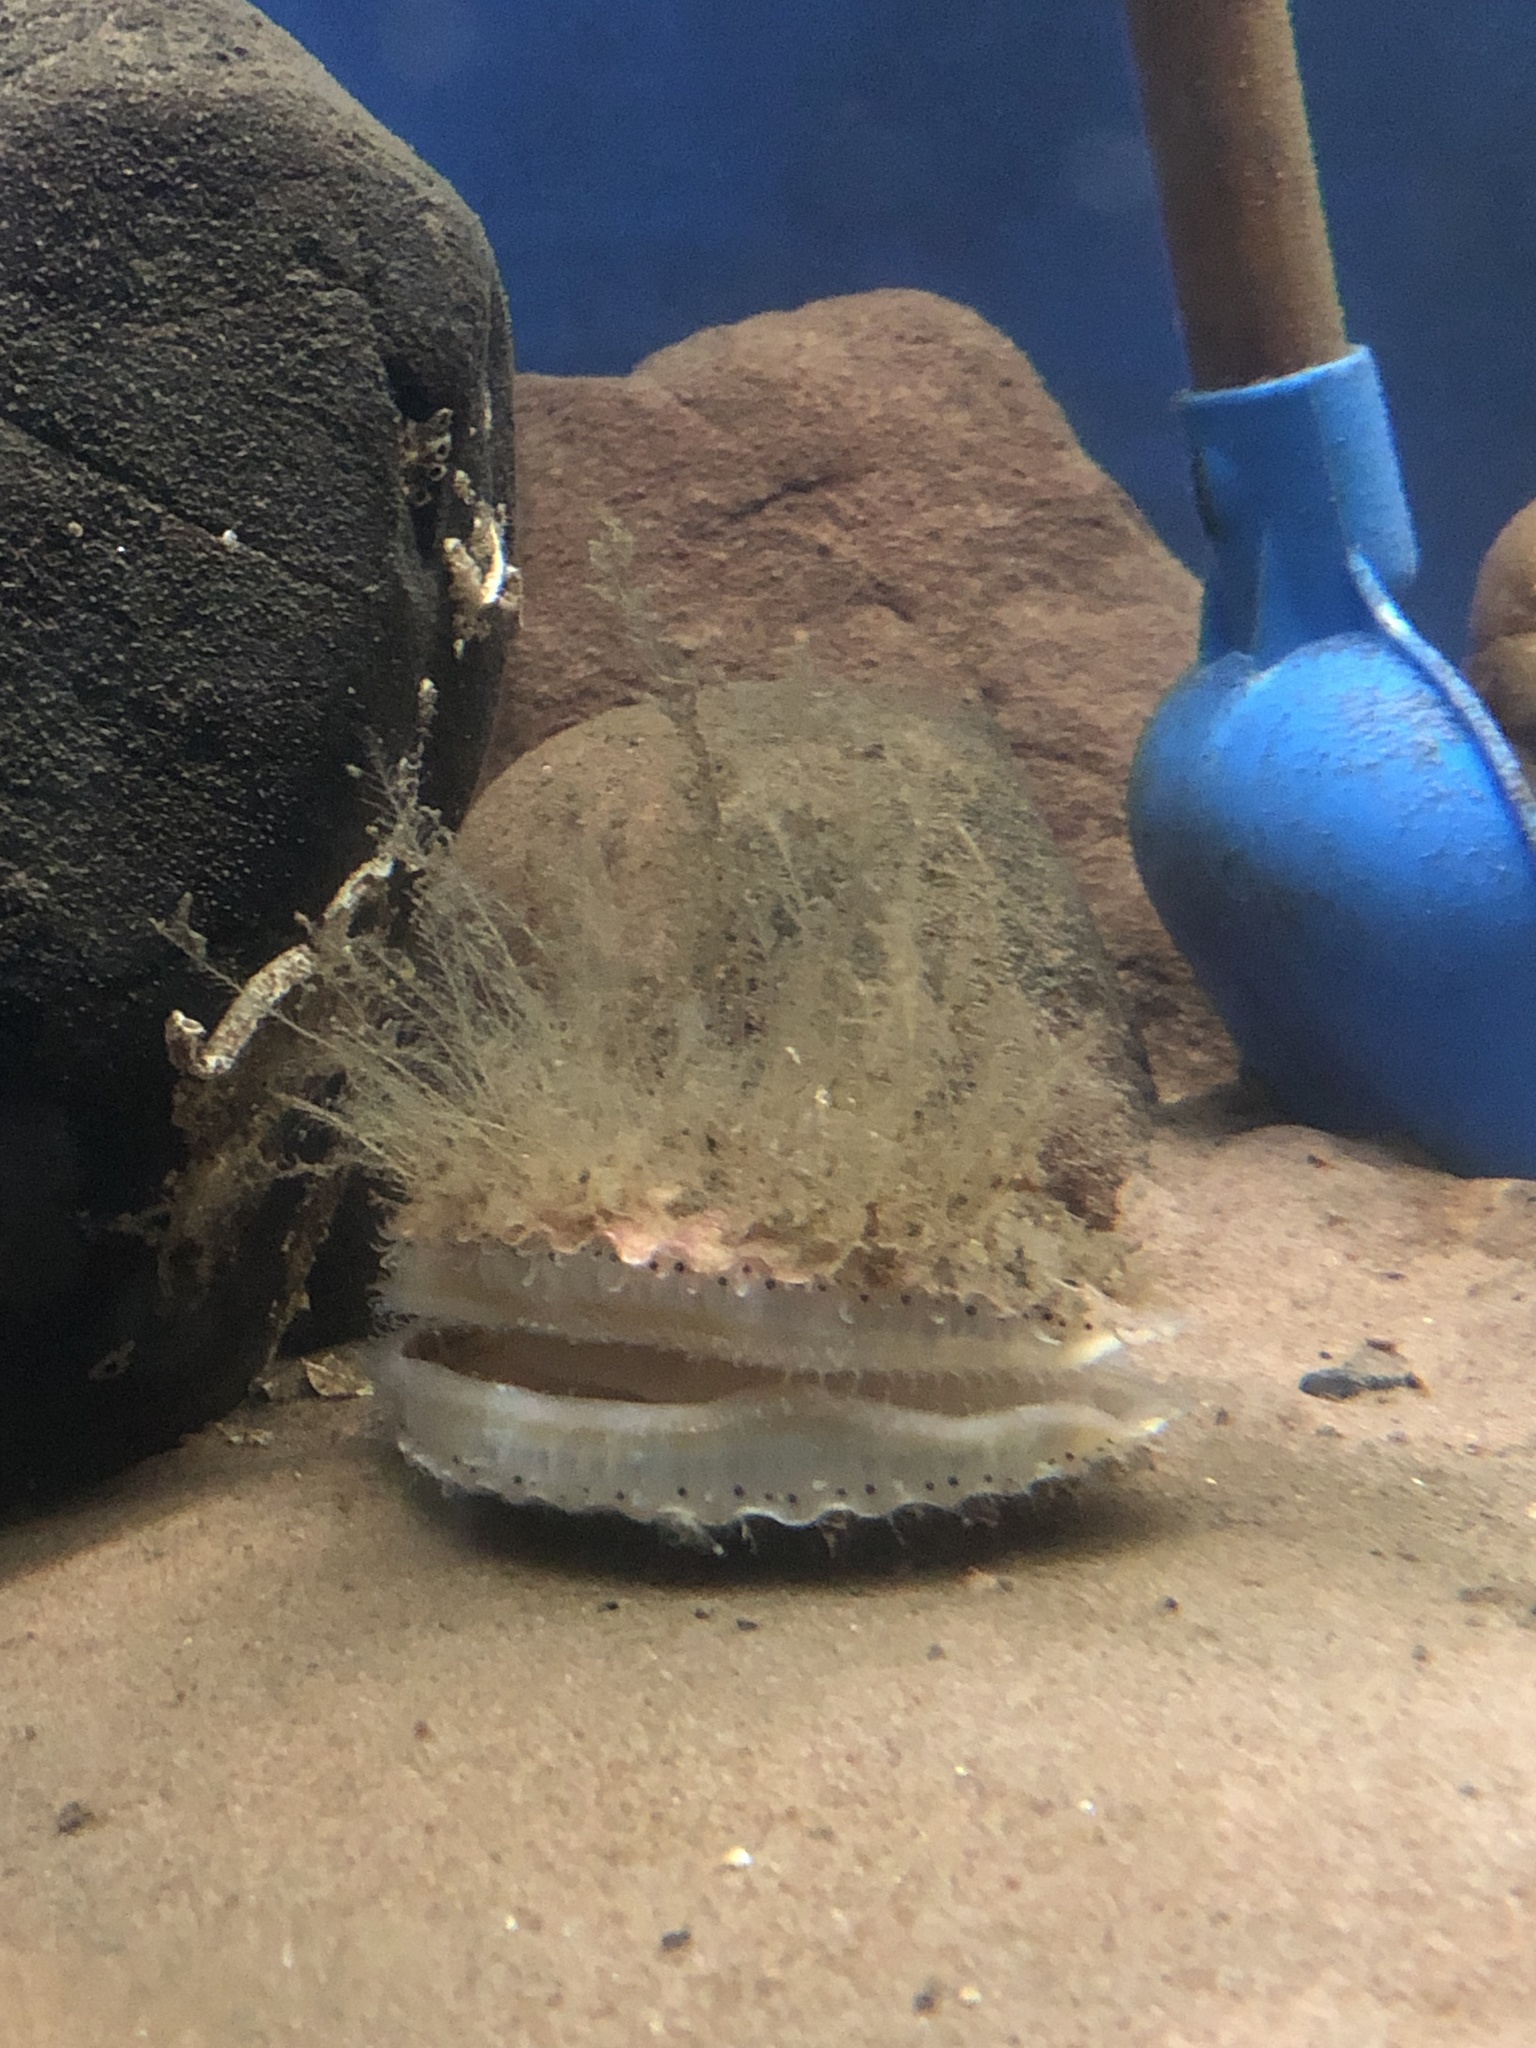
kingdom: Animalia
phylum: Mollusca
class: Bivalvia
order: Pectinida
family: Pectinidae
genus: Aequipecten
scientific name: Aequipecten opercularis
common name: Queen scallop
